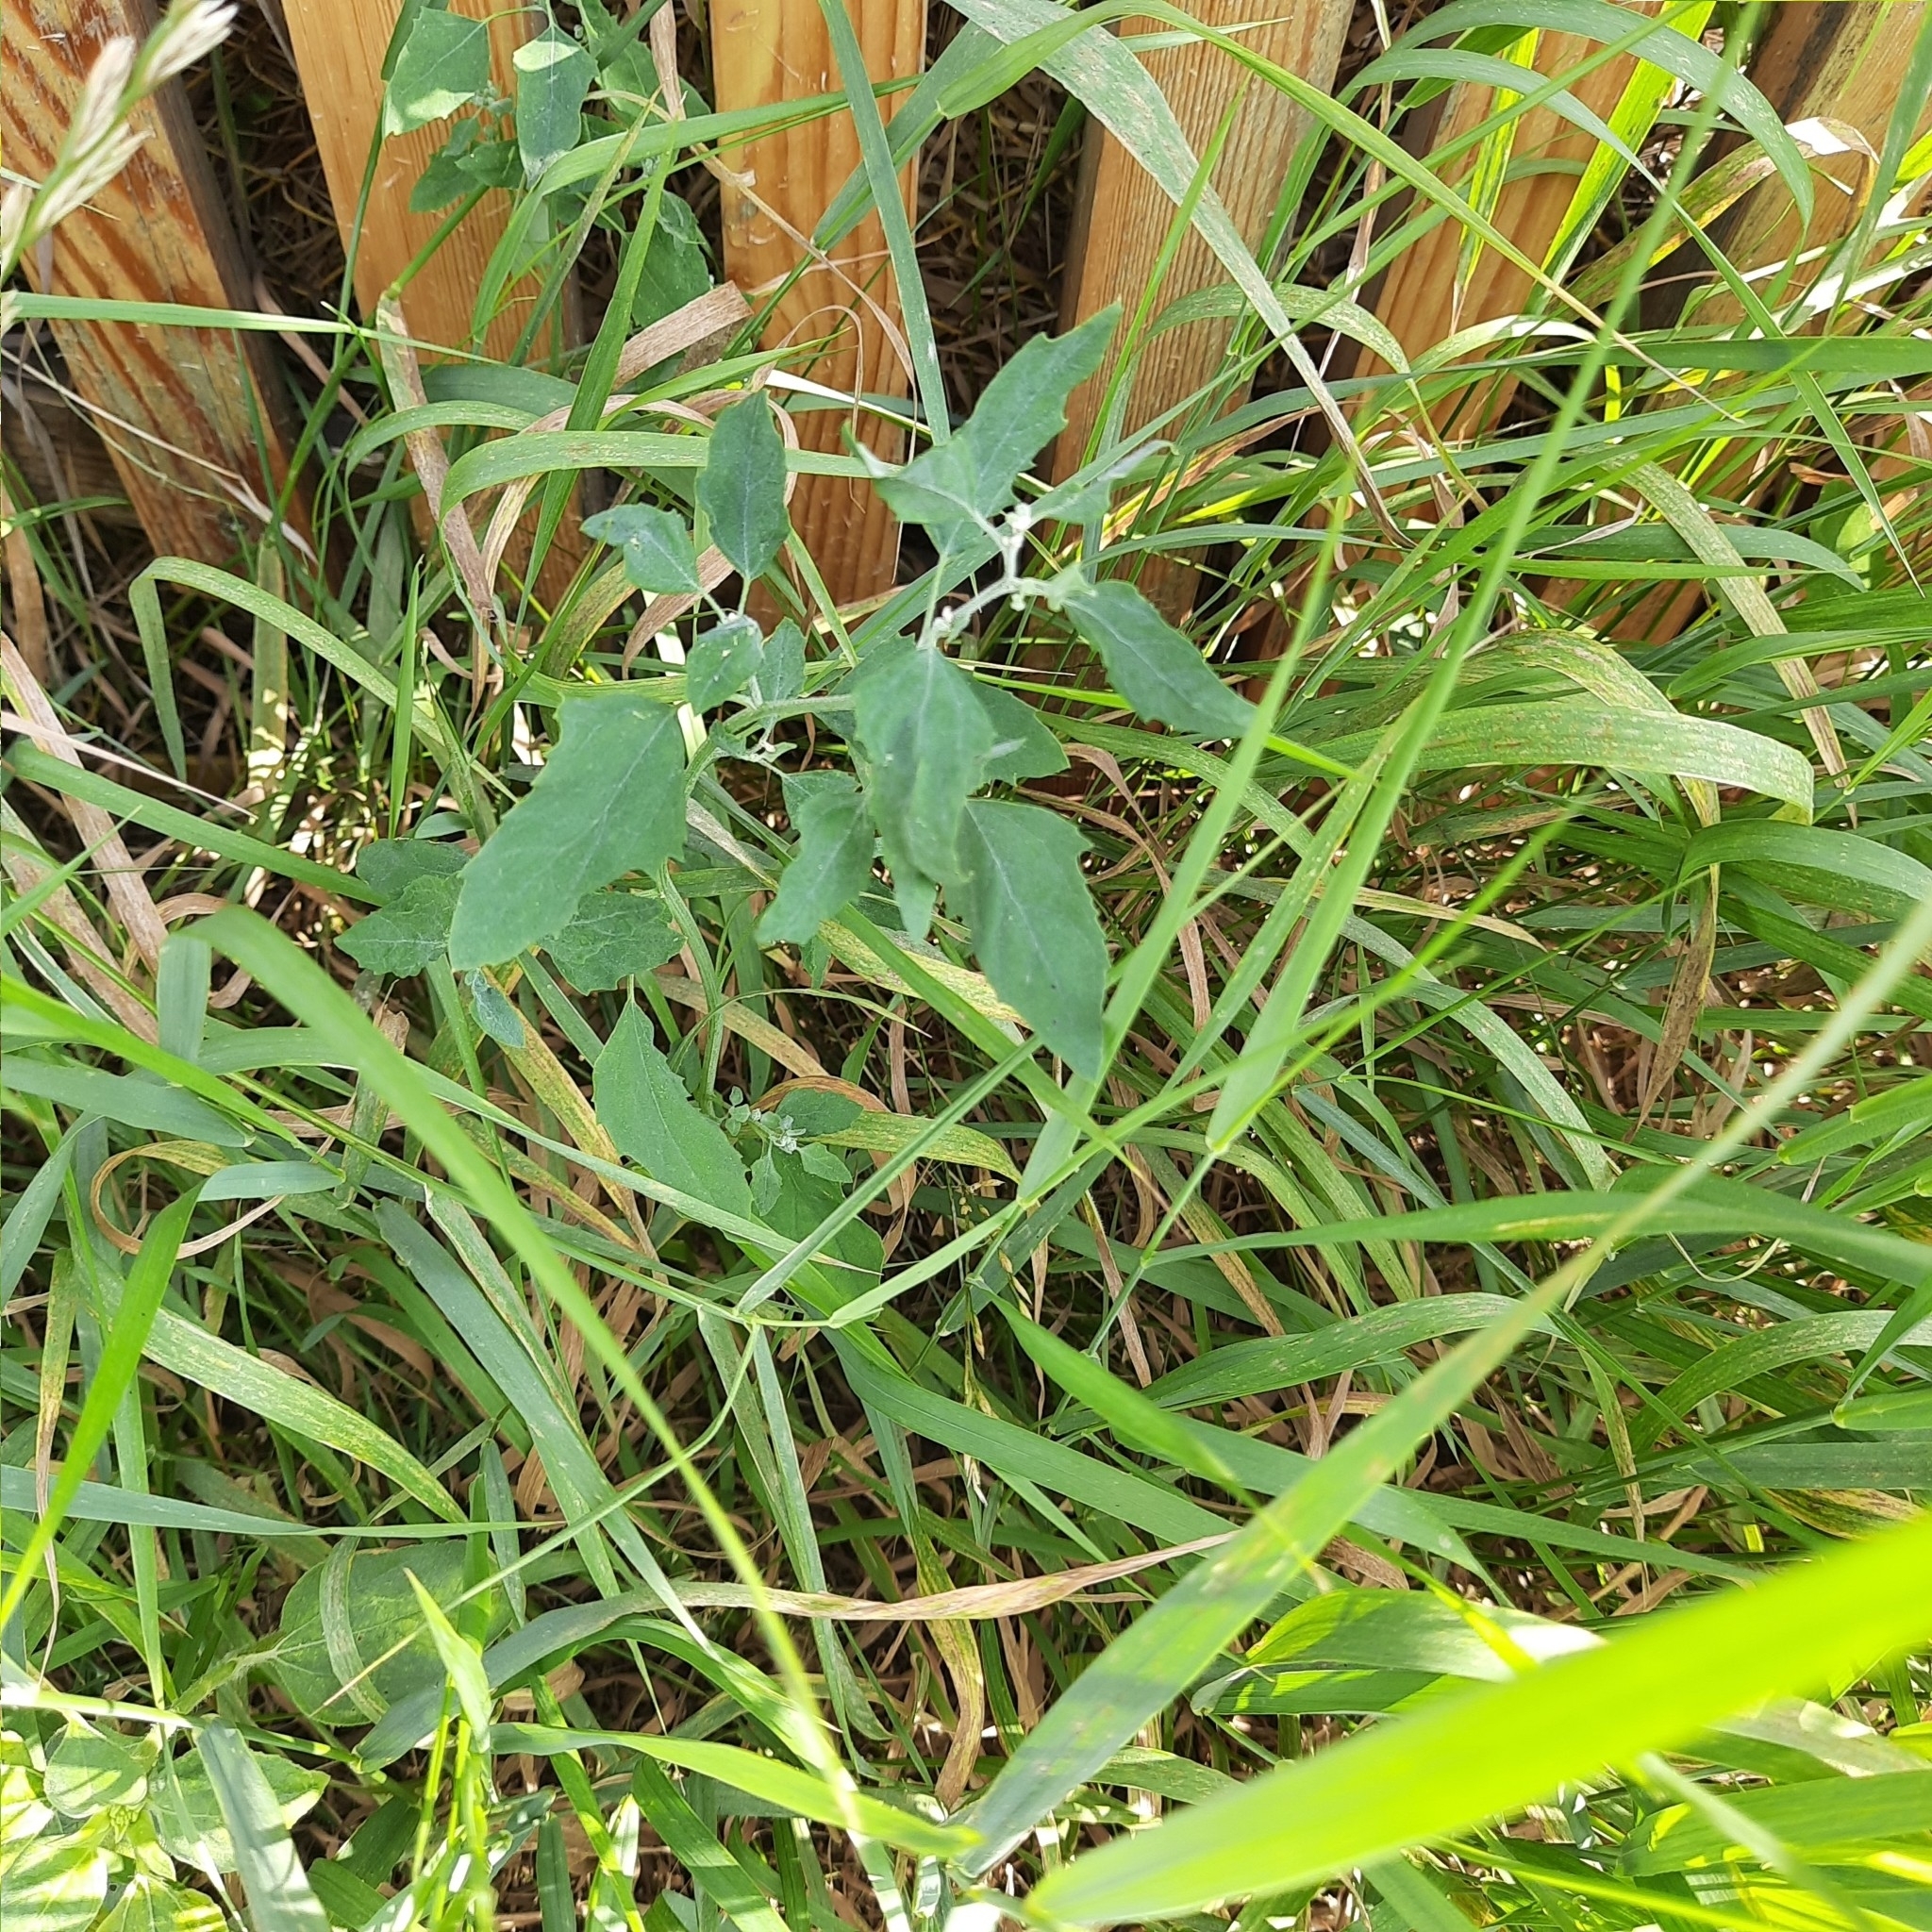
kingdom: Plantae
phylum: Tracheophyta
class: Magnoliopsida
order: Caryophyllales
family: Amaranthaceae
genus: Chenopodium
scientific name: Chenopodium album
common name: Fat-hen
